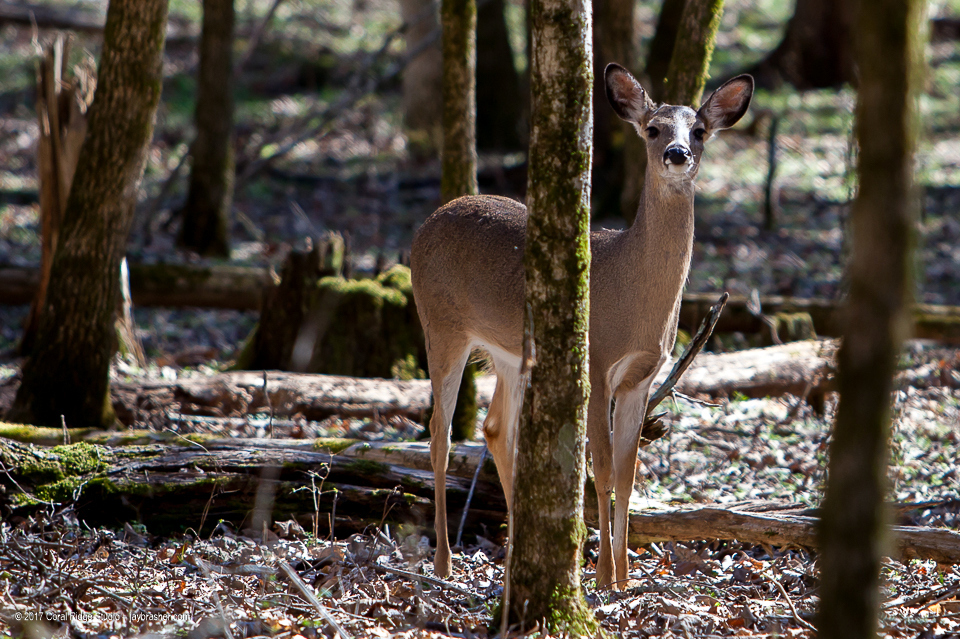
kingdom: Animalia
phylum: Chordata
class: Mammalia
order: Artiodactyla
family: Cervidae
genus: Odocoileus
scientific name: Odocoileus virginianus
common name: White-tailed deer
